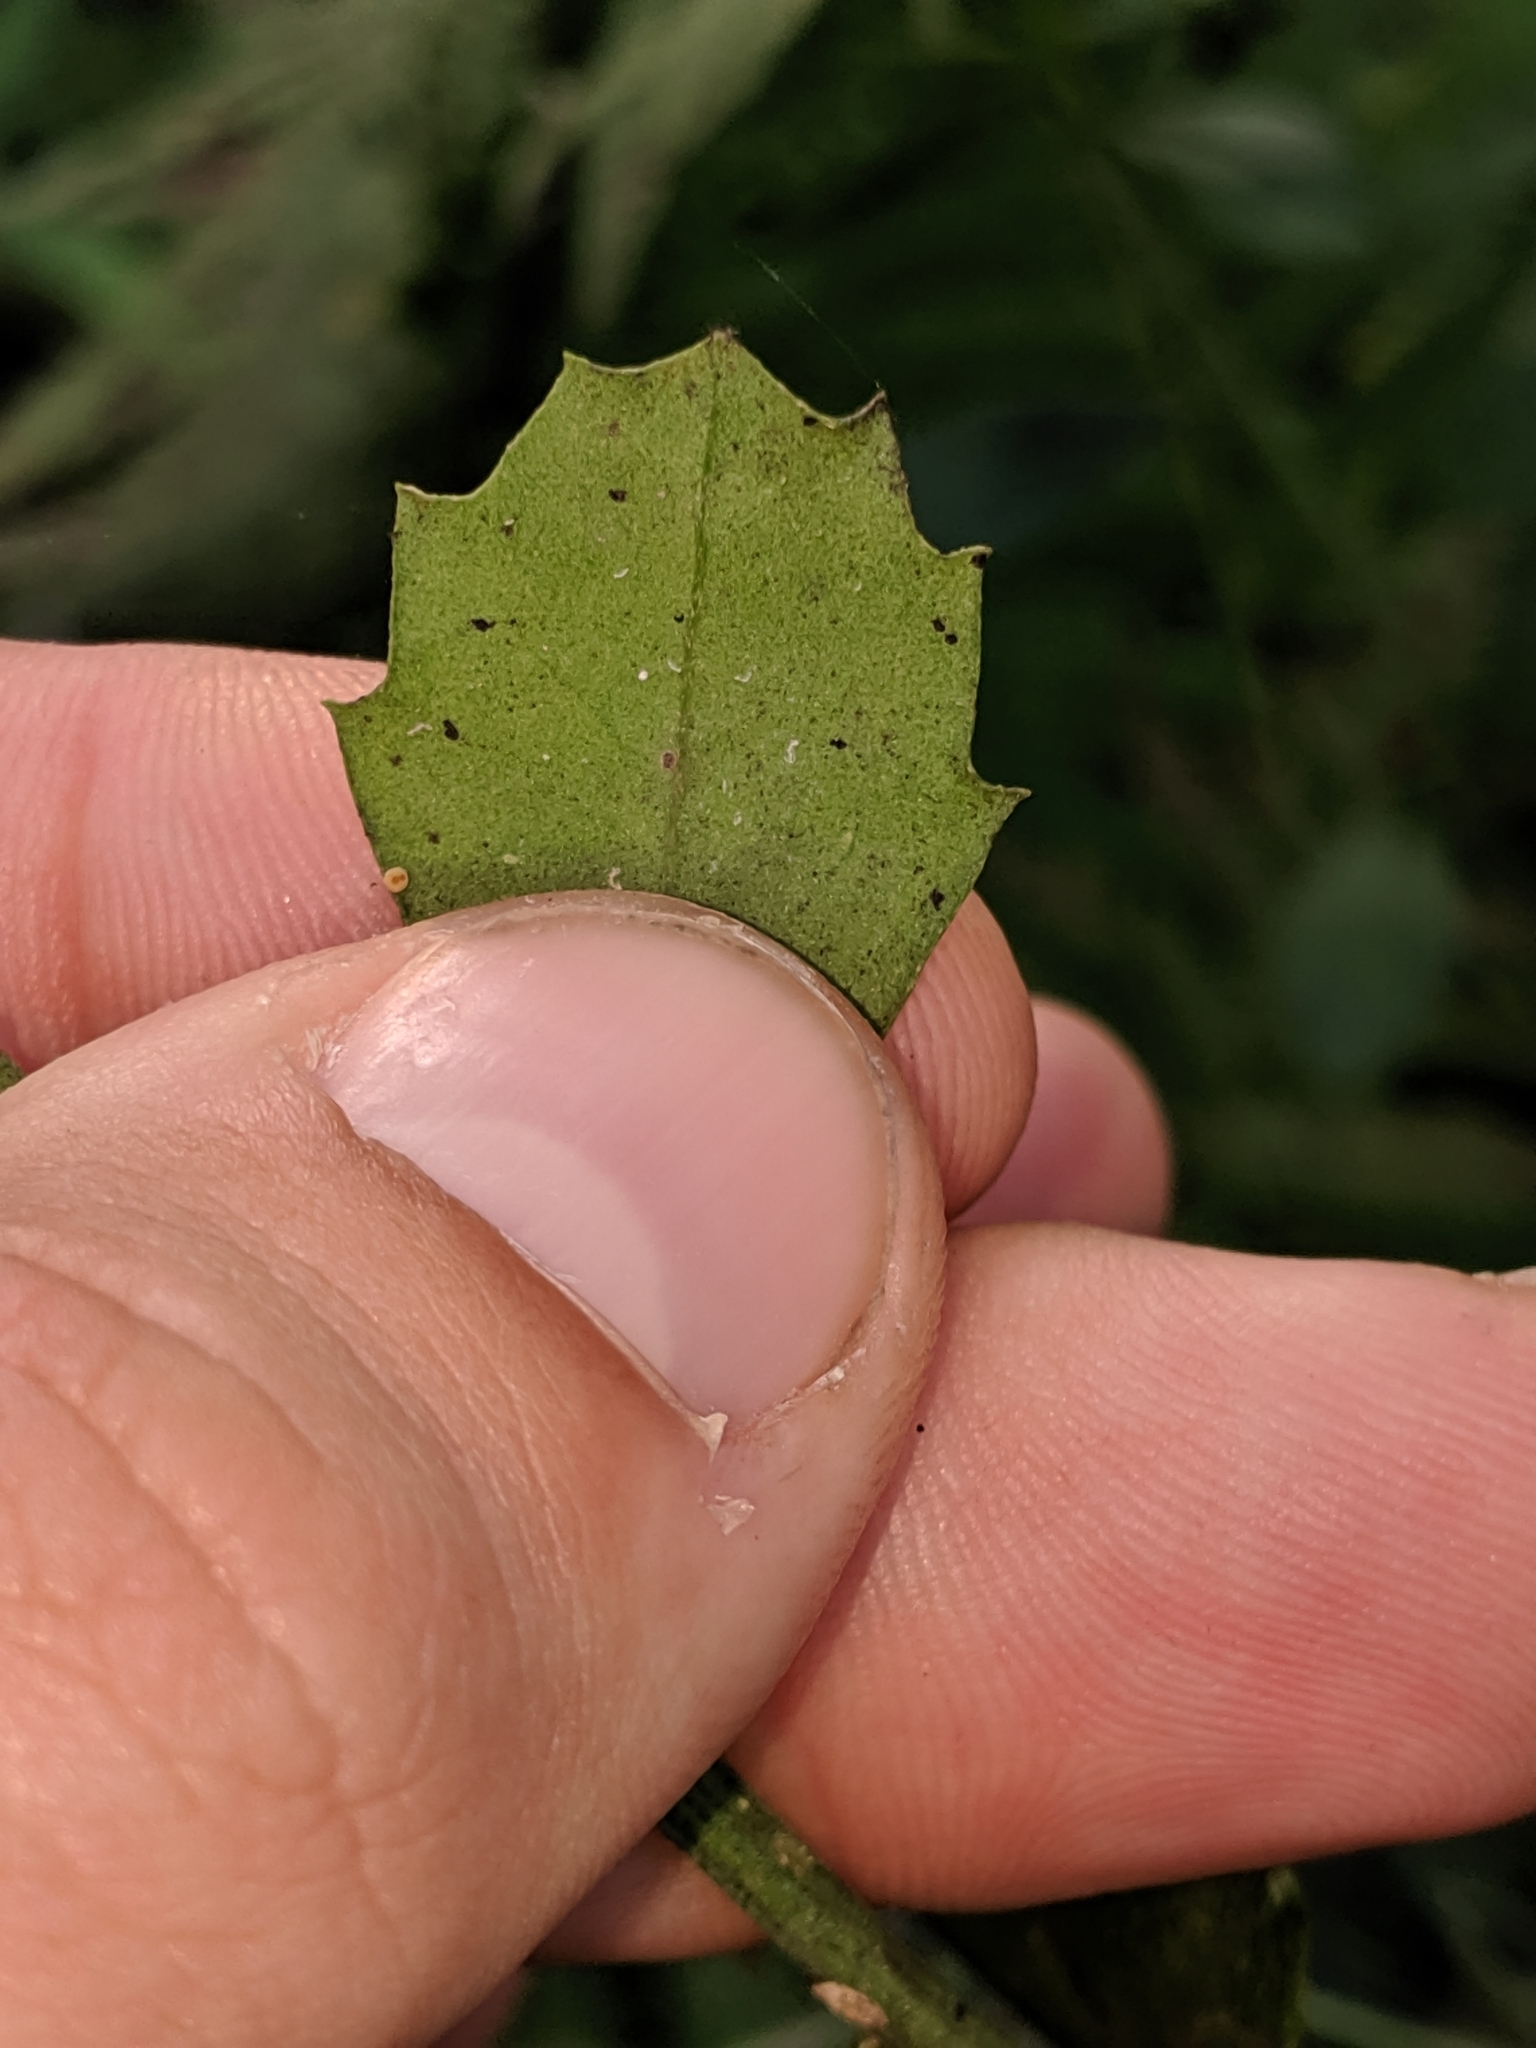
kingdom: Plantae
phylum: Tracheophyta
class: Magnoliopsida
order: Asterales
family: Asteraceae
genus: Baccharis
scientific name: Baccharis glomeruliflora
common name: Silverling groundsel bush
